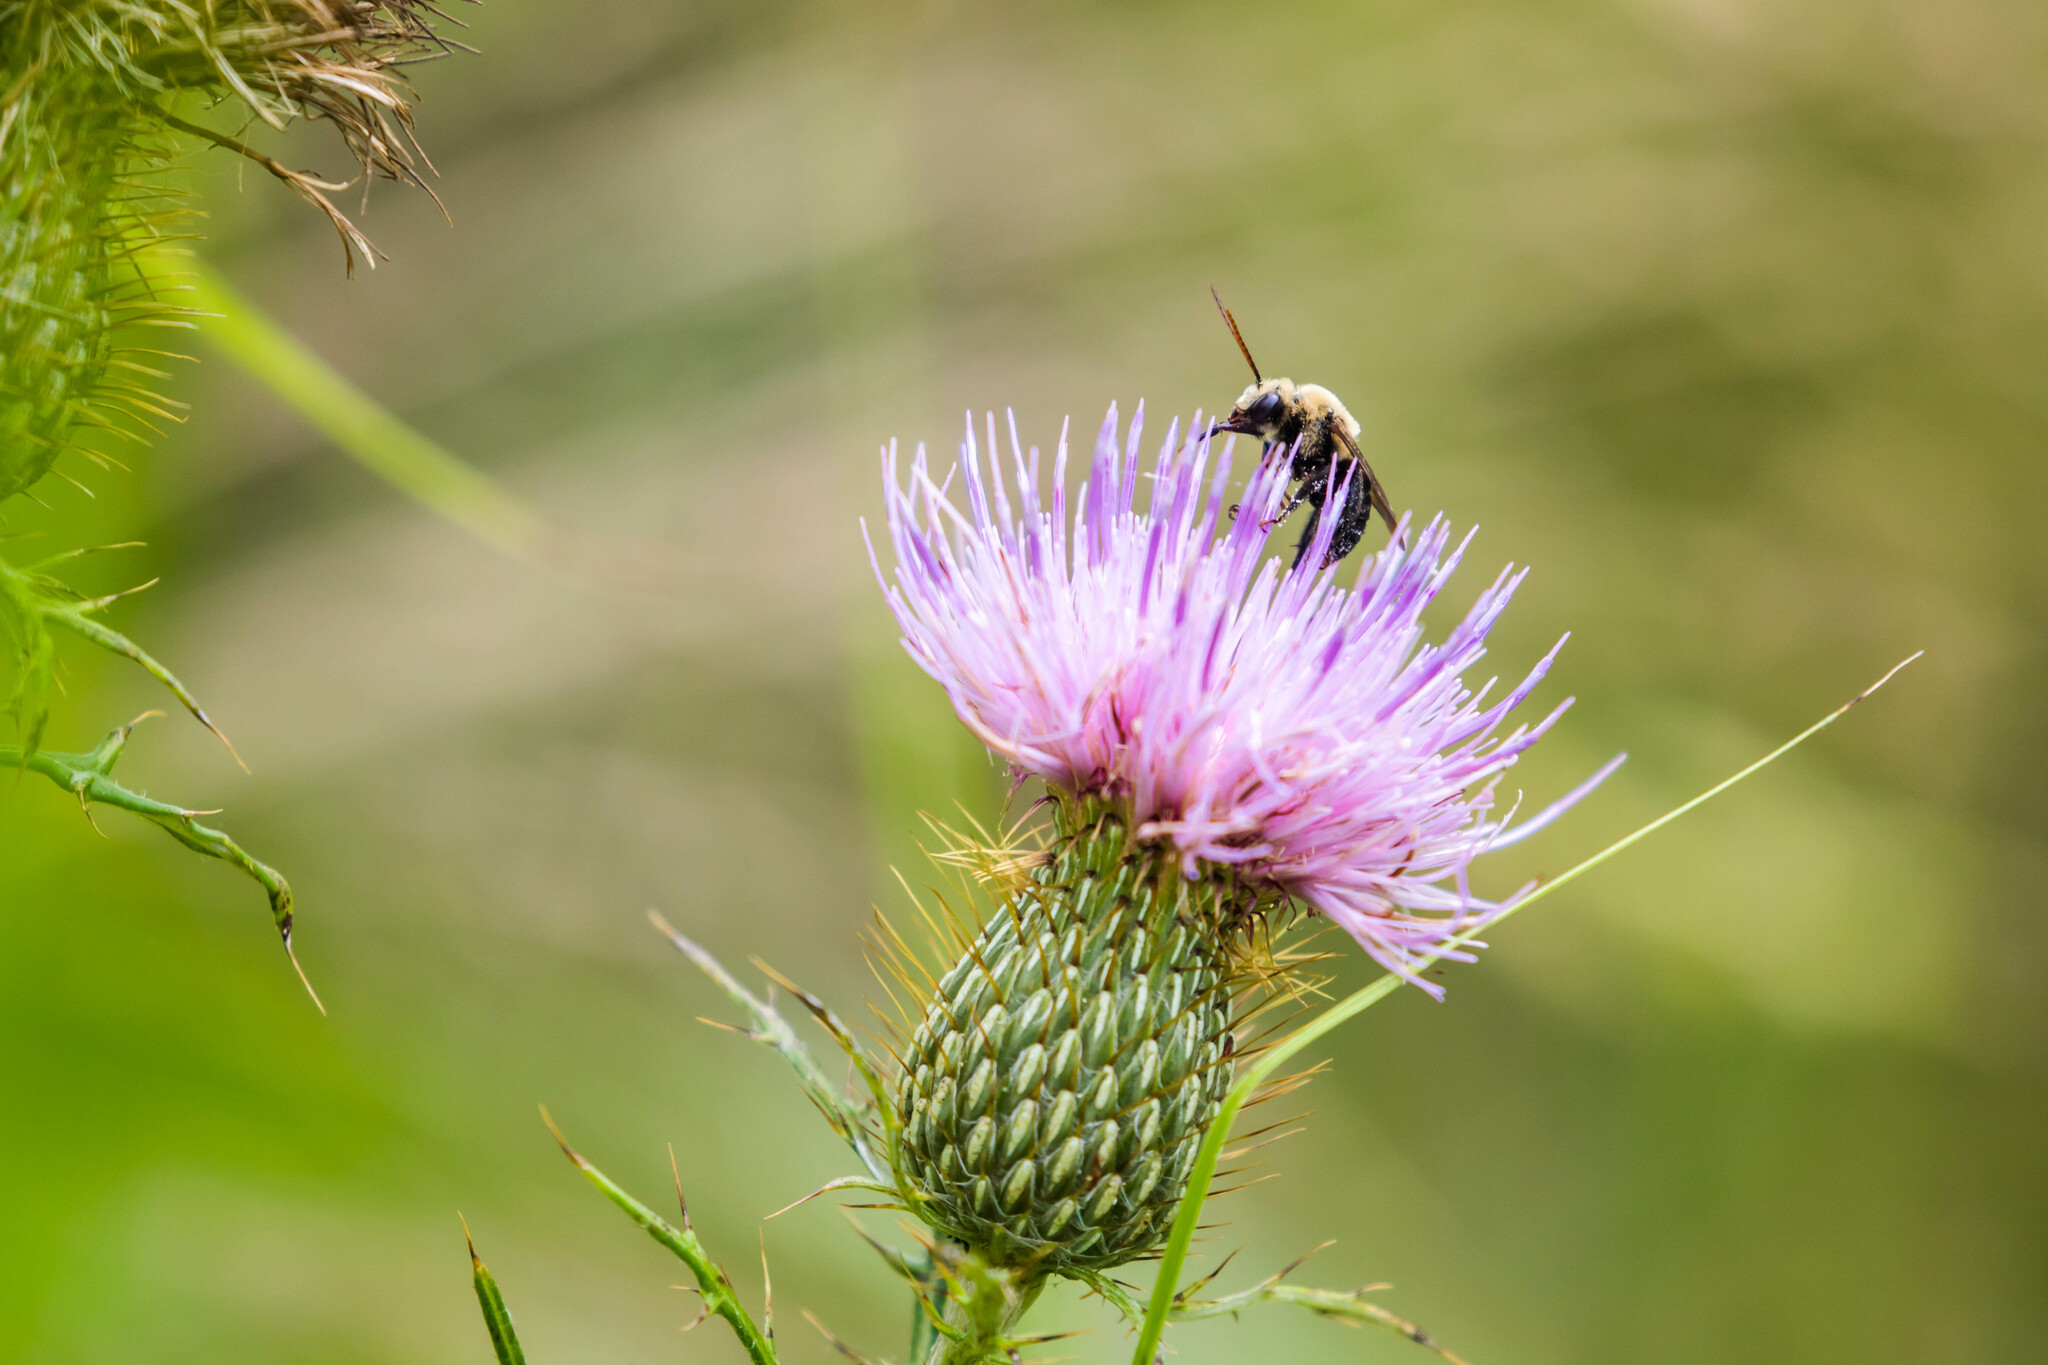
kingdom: Animalia
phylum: Arthropoda
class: Insecta
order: Hymenoptera
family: Apidae
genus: Melissodes
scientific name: Melissodes desponsus
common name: Thistle long-horned bee
